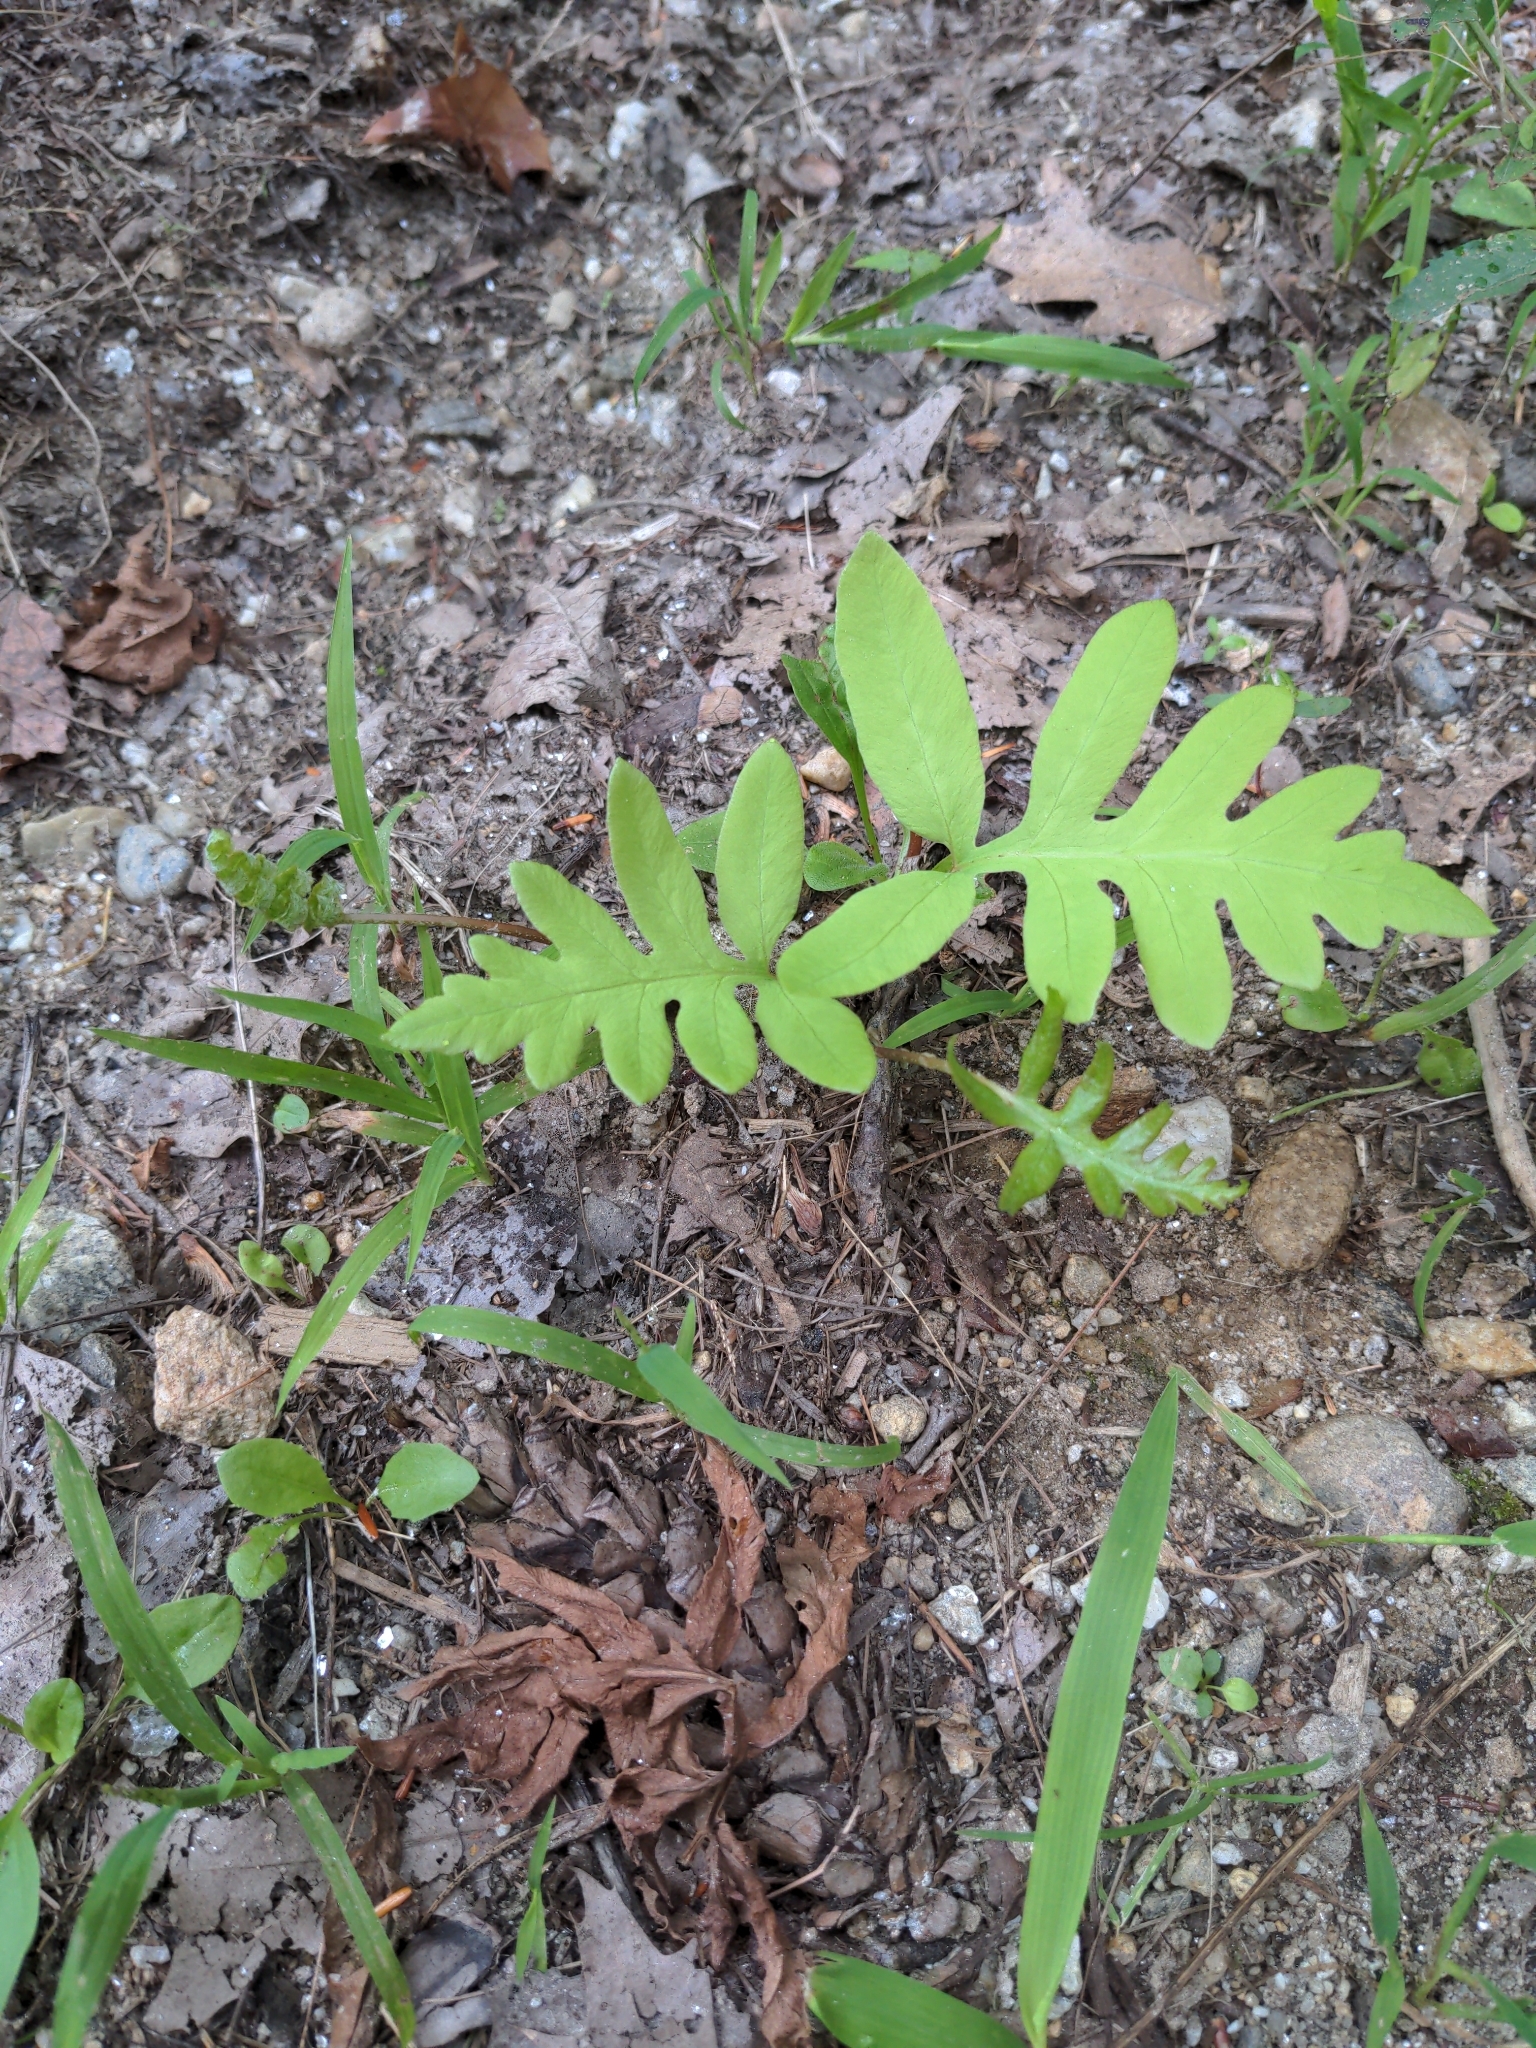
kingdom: Plantae
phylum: Tracheophyta
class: Polypodiopsida
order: Polypodiales
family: Onocleaceae
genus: Onoclea
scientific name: Onoclea sensibilis
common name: Sensitive fern
